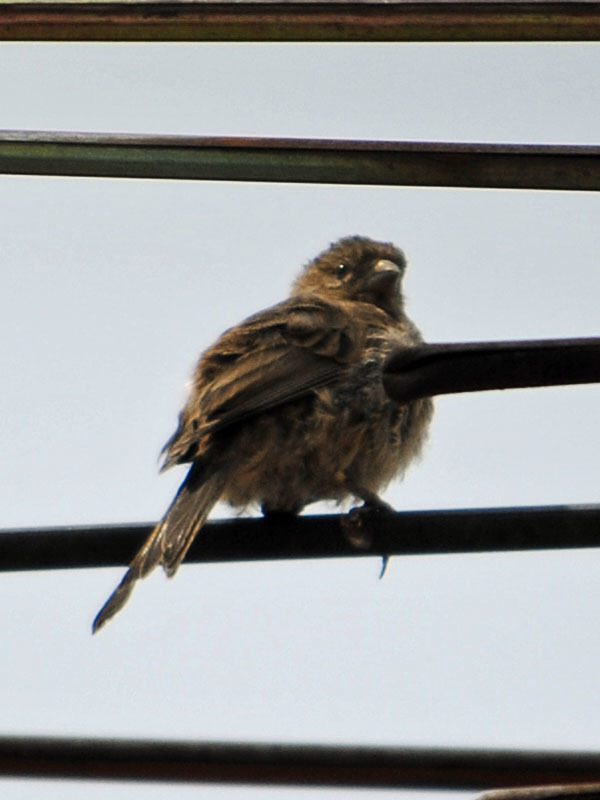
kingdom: Animalia
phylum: Chordata
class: Aves
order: Passeriformes
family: Fringillidae
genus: Haemorhous
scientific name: Haemorhous mexicanus
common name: House finch
